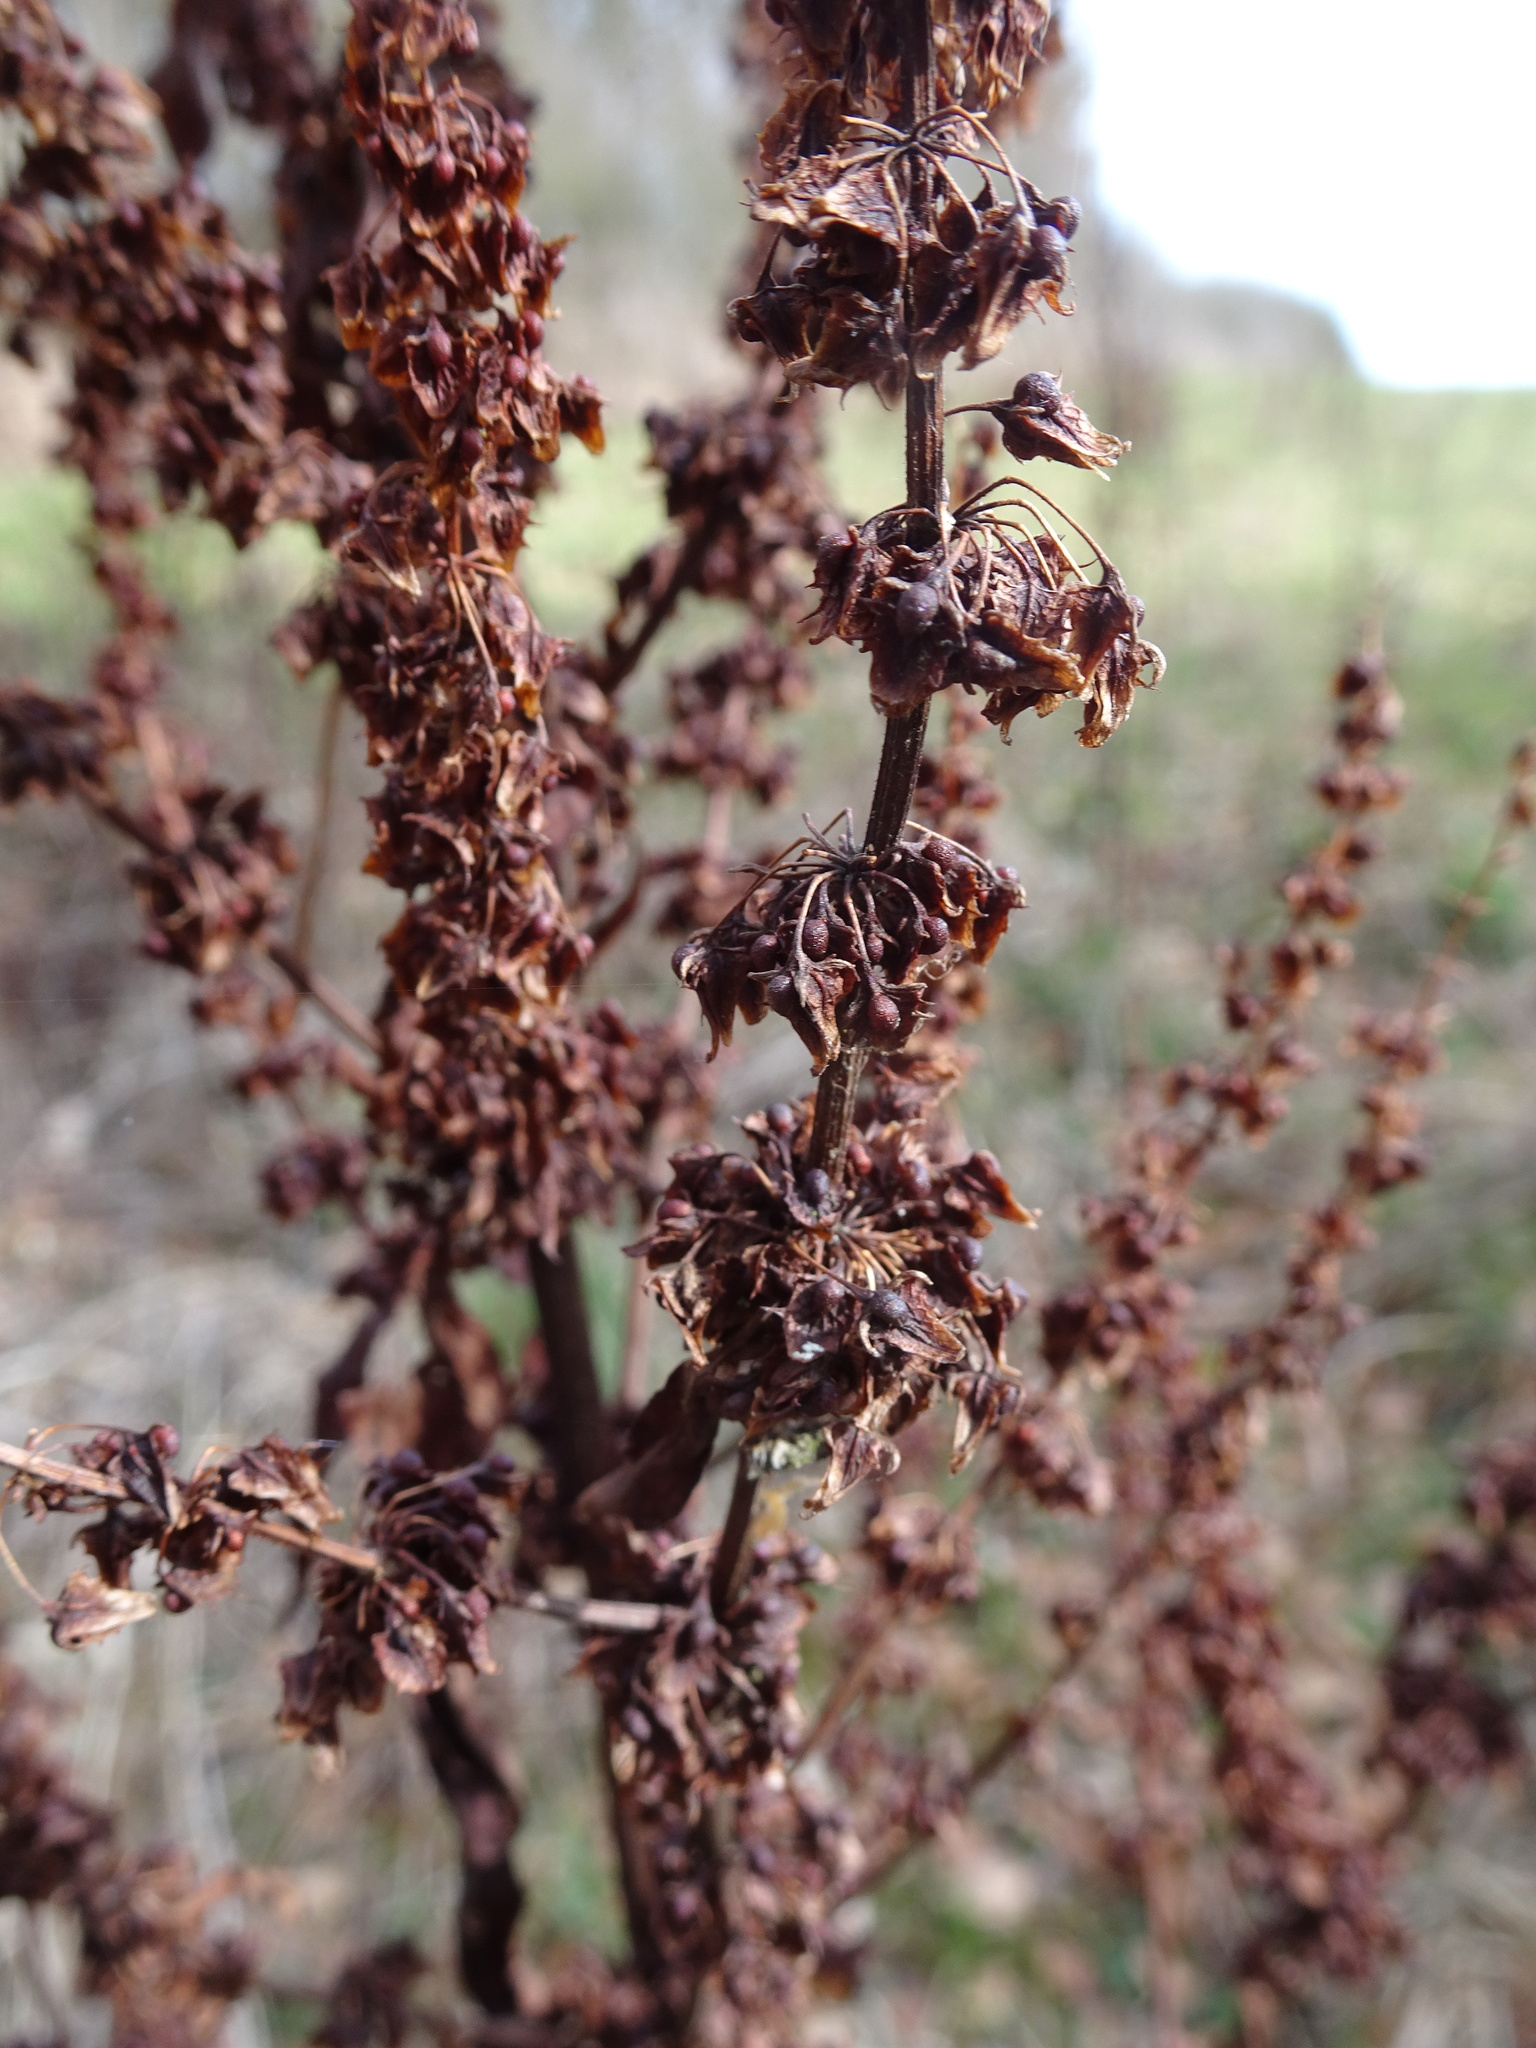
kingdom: Plantae
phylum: Tracheophyta
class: Magnoliopsida
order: Caryophyllales
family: Polygonaceae
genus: Rumex
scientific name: Rumex obtusifolius
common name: Bitter dock
